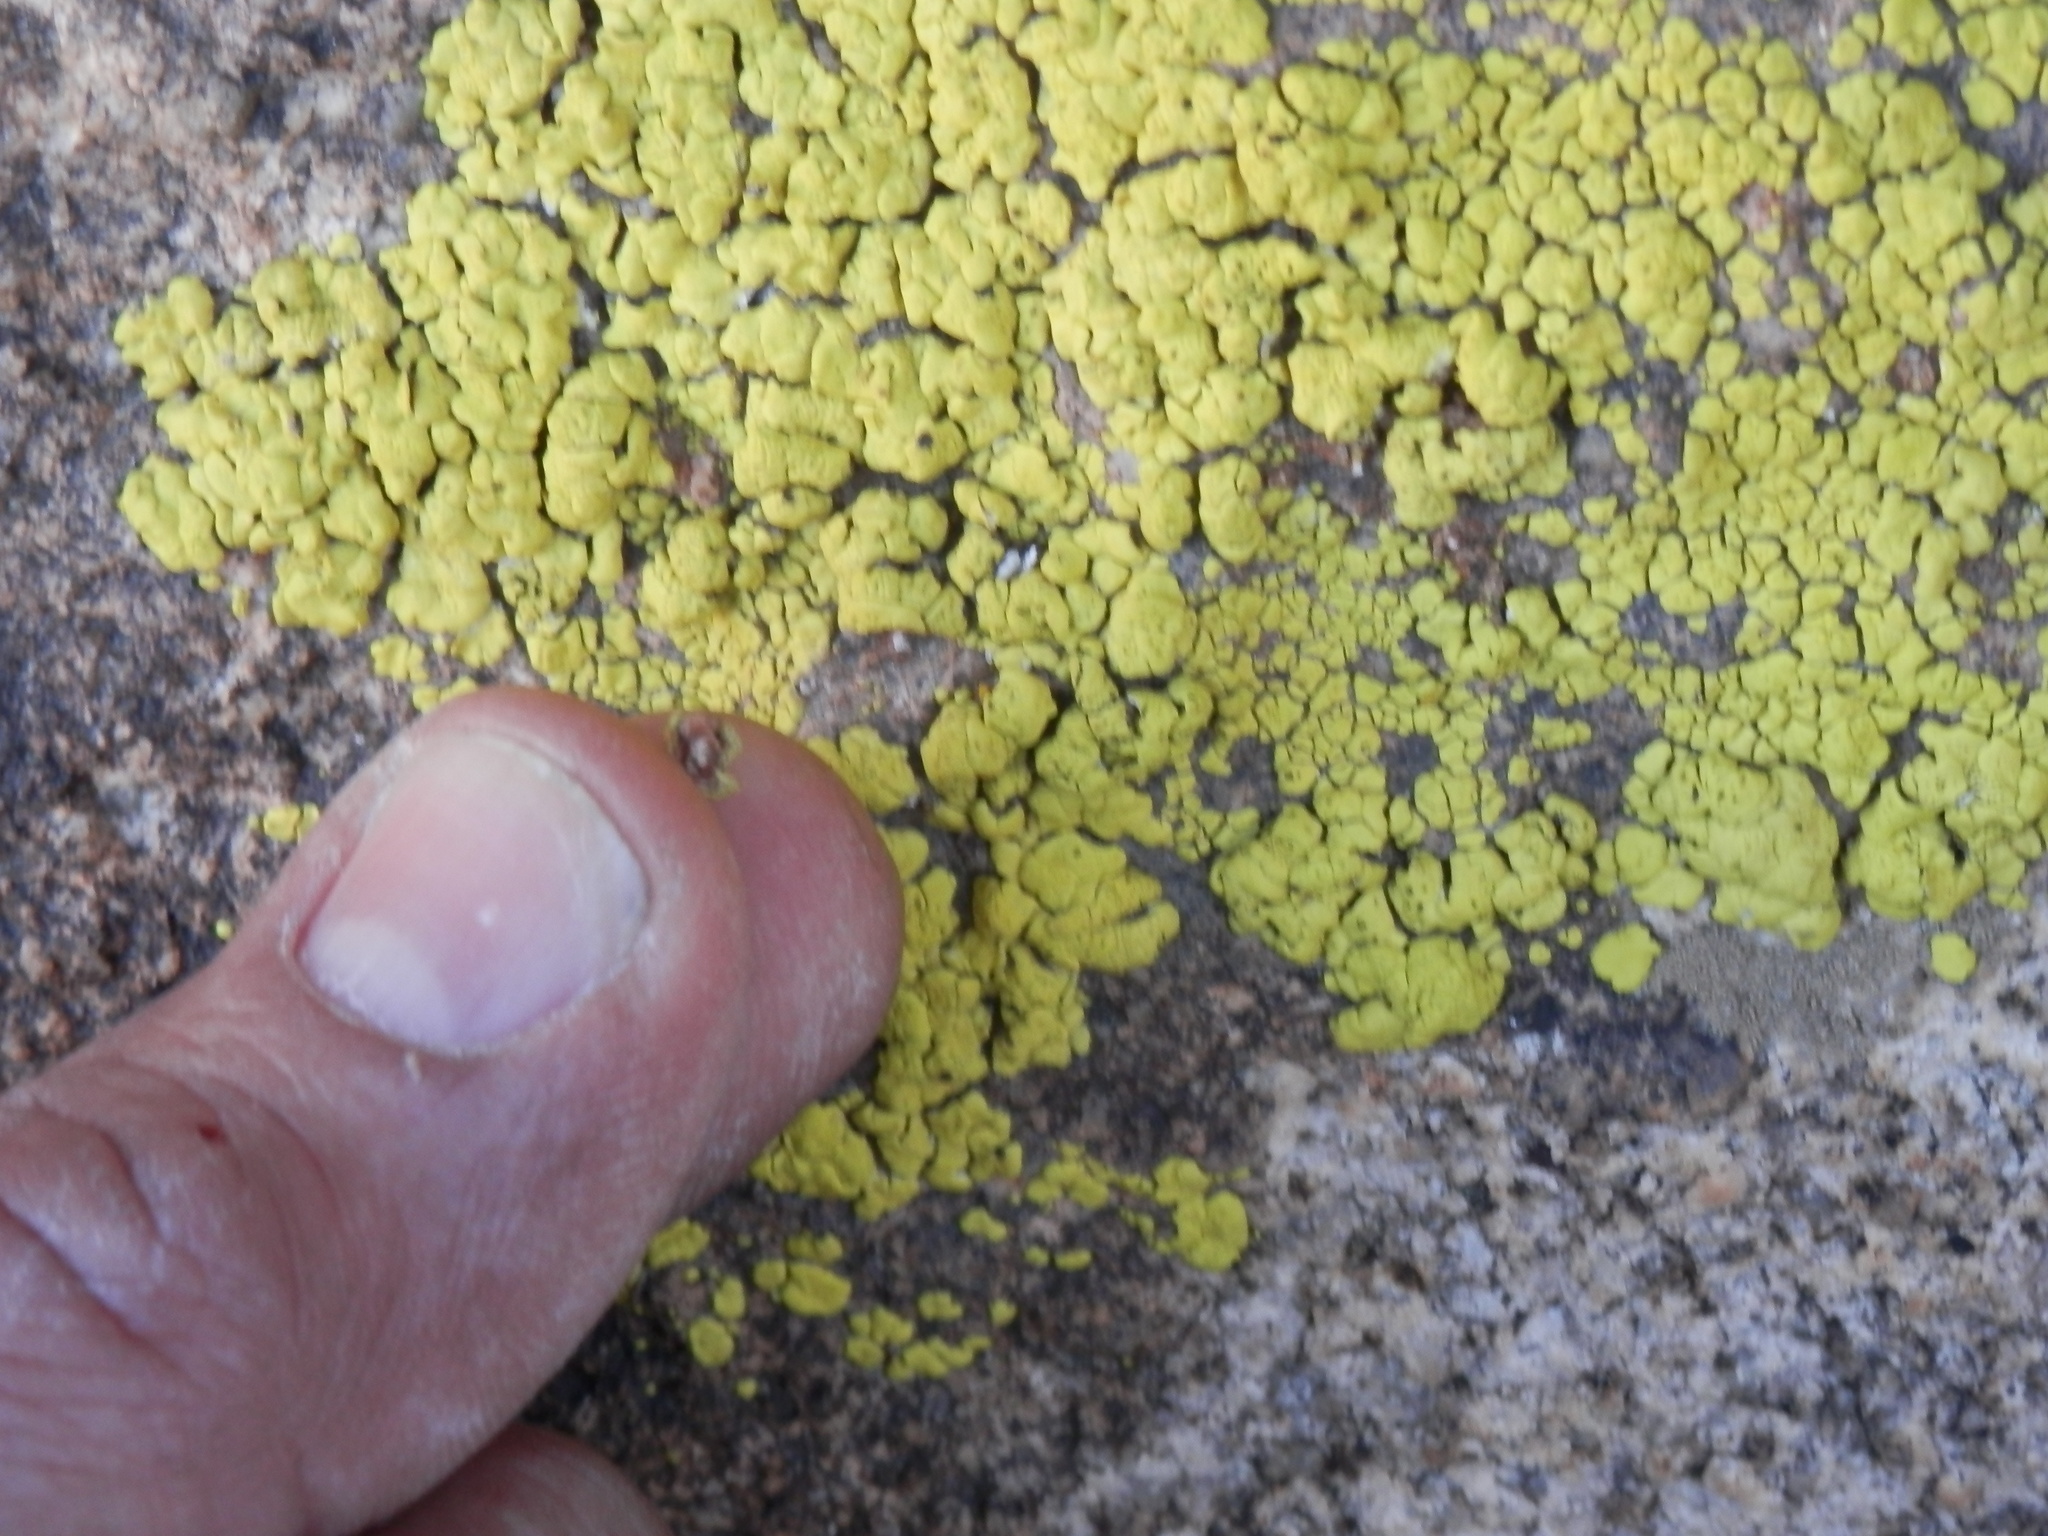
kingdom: Fungi
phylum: Ascomycota
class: Lecanoromycetes
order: Acarosporales
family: Acarosporaceae
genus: Acarospora
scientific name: Acarospora socialis
